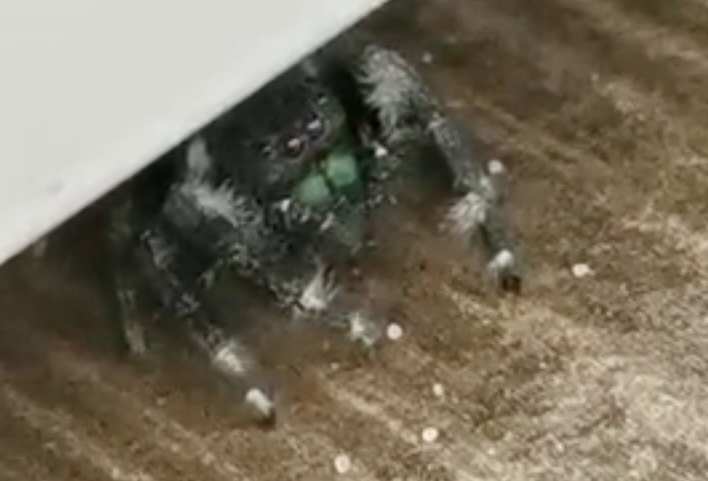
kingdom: Animalia
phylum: Arthropoda
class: Arachnida
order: Araneae
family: Salticidae
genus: Phidippus
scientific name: Phidippus audax
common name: Bold jumper
